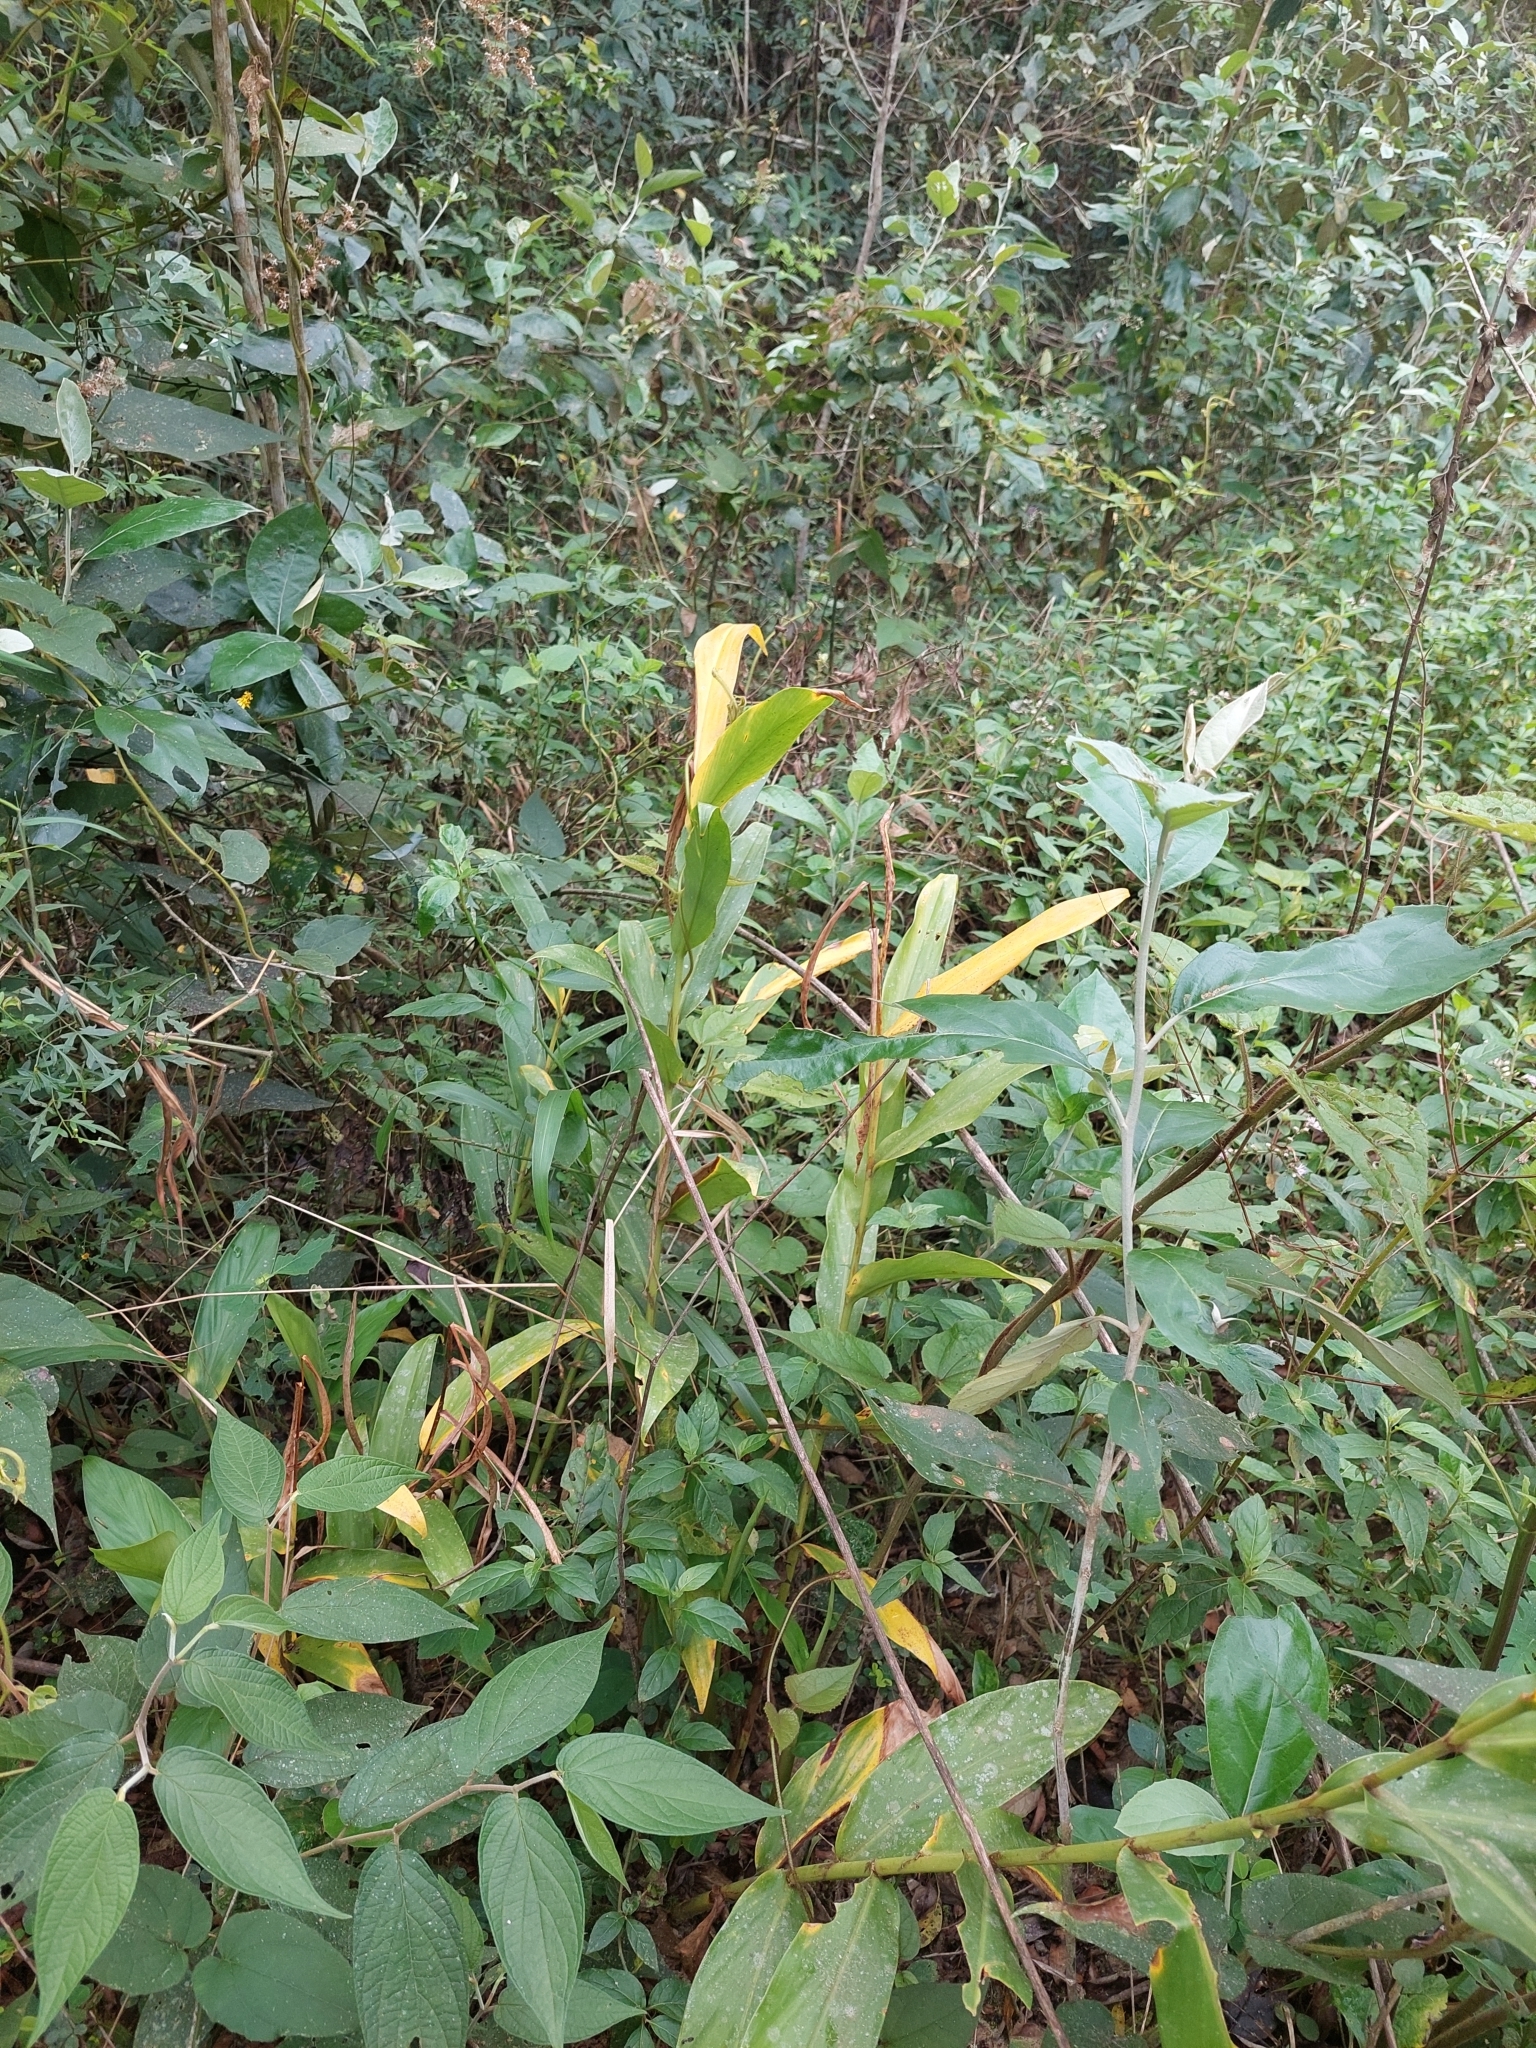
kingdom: Plantae
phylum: Tracheophyta
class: Liliopsida
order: Zingiberales
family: Zingiberaceae
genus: Hedychium
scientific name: Hedychium coronarium
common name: White garland-lily
